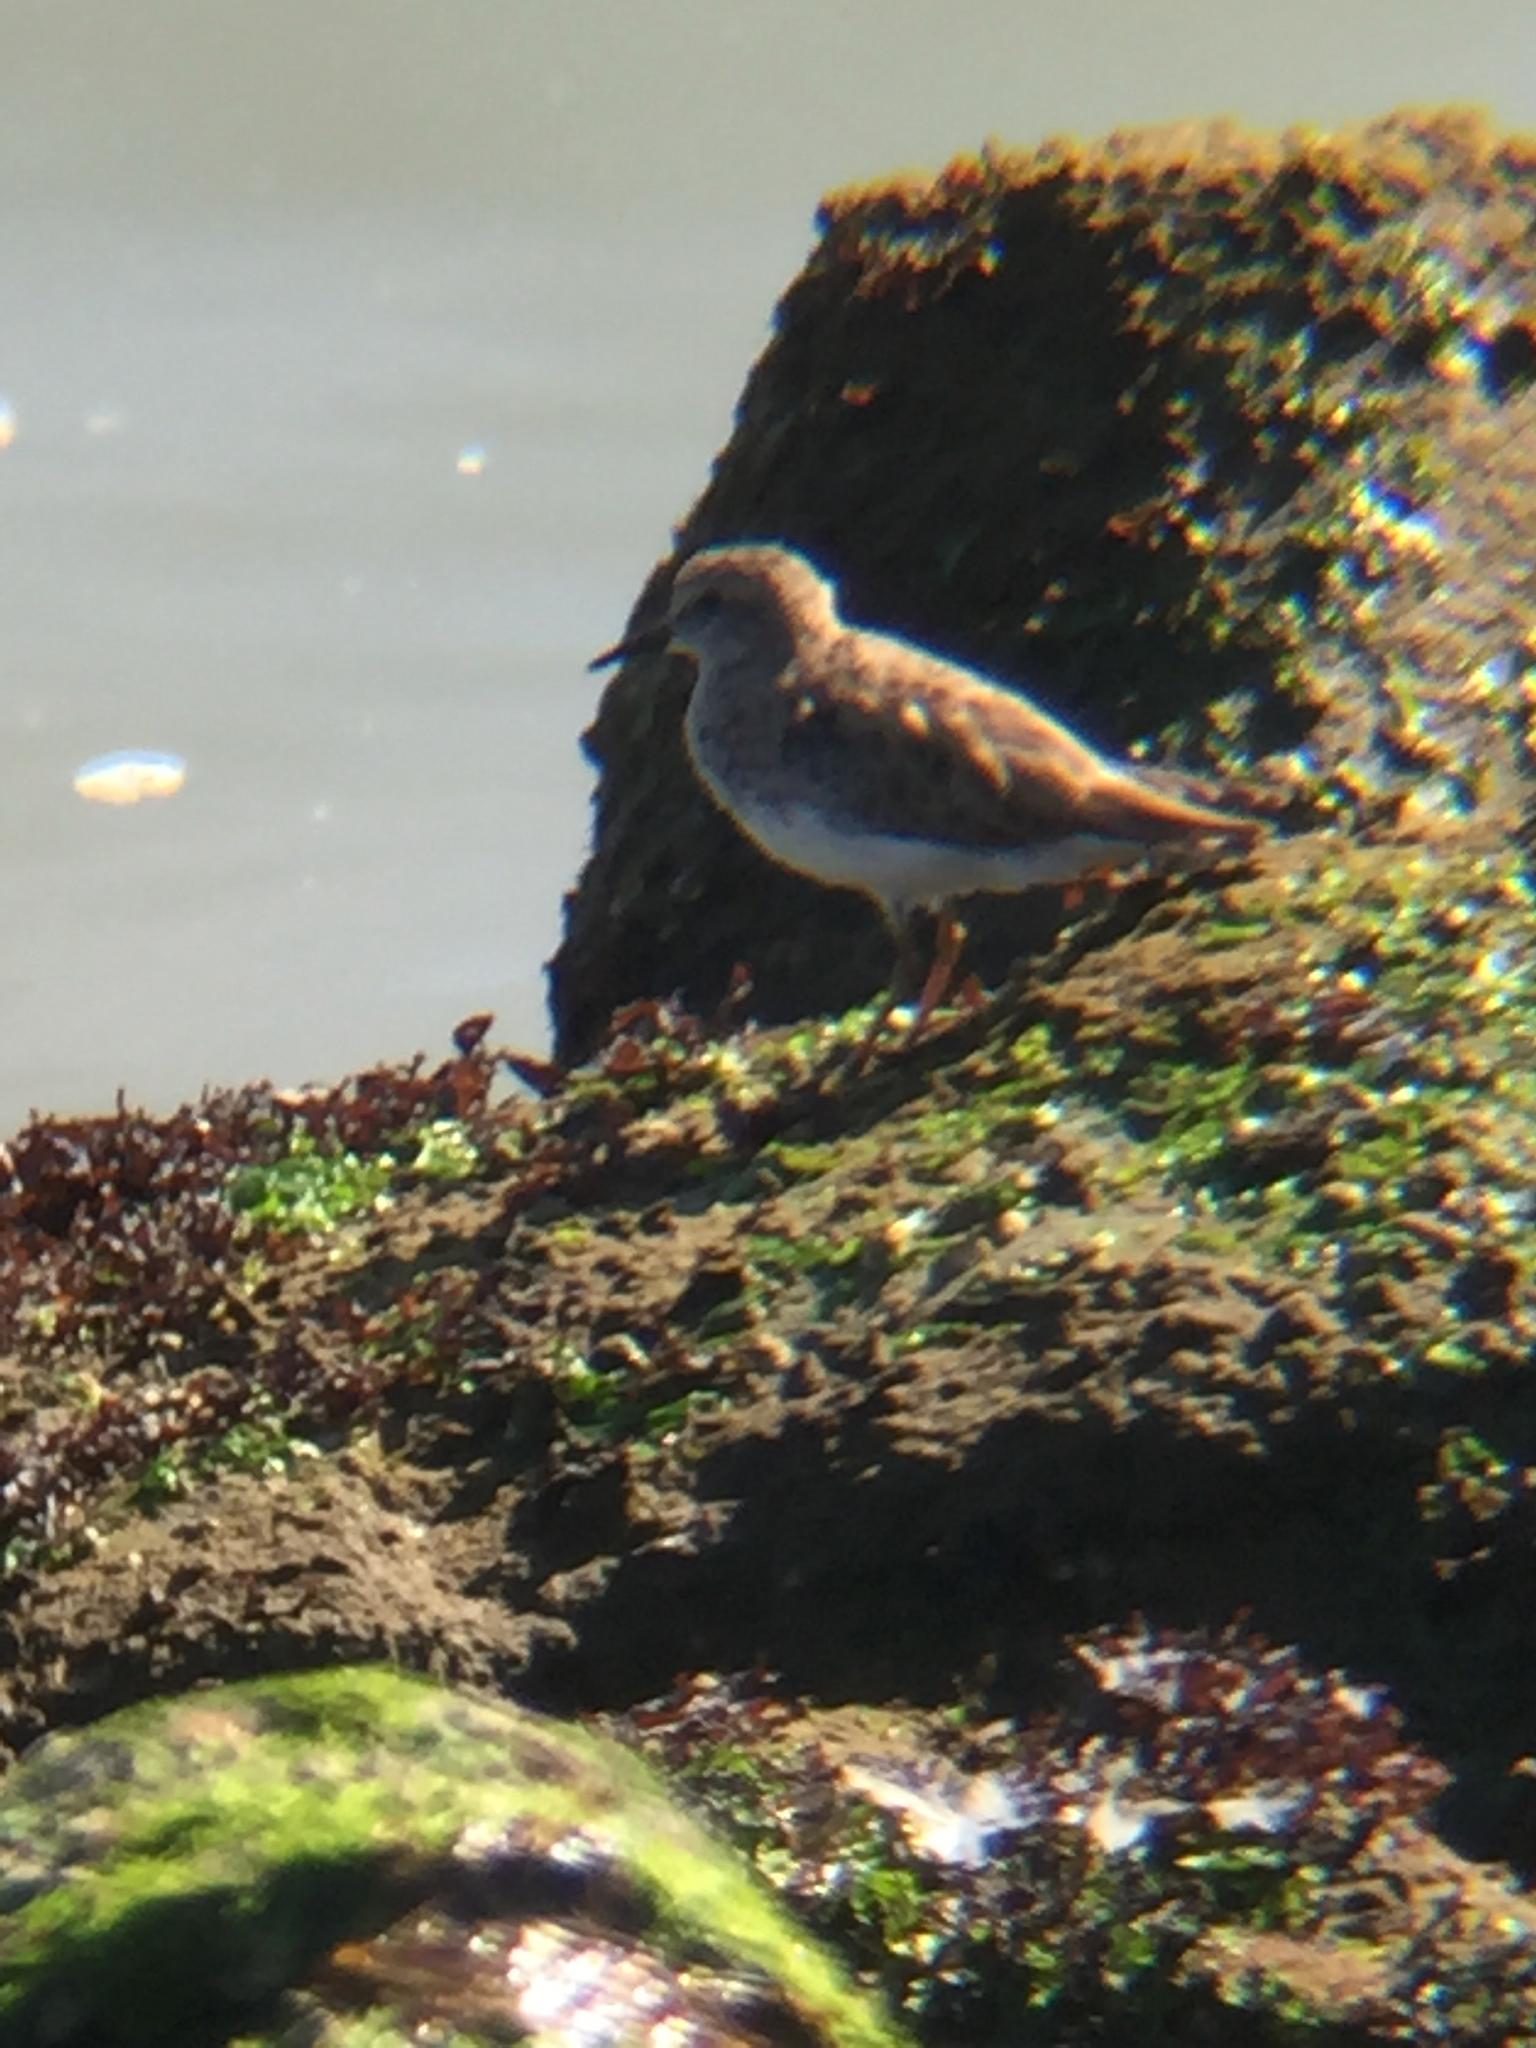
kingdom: Animalia
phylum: Chordata
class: Aves
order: Charadriiformes
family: Scolopacidae
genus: Calidris
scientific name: Calidris minutilla
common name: Least sandpiper
